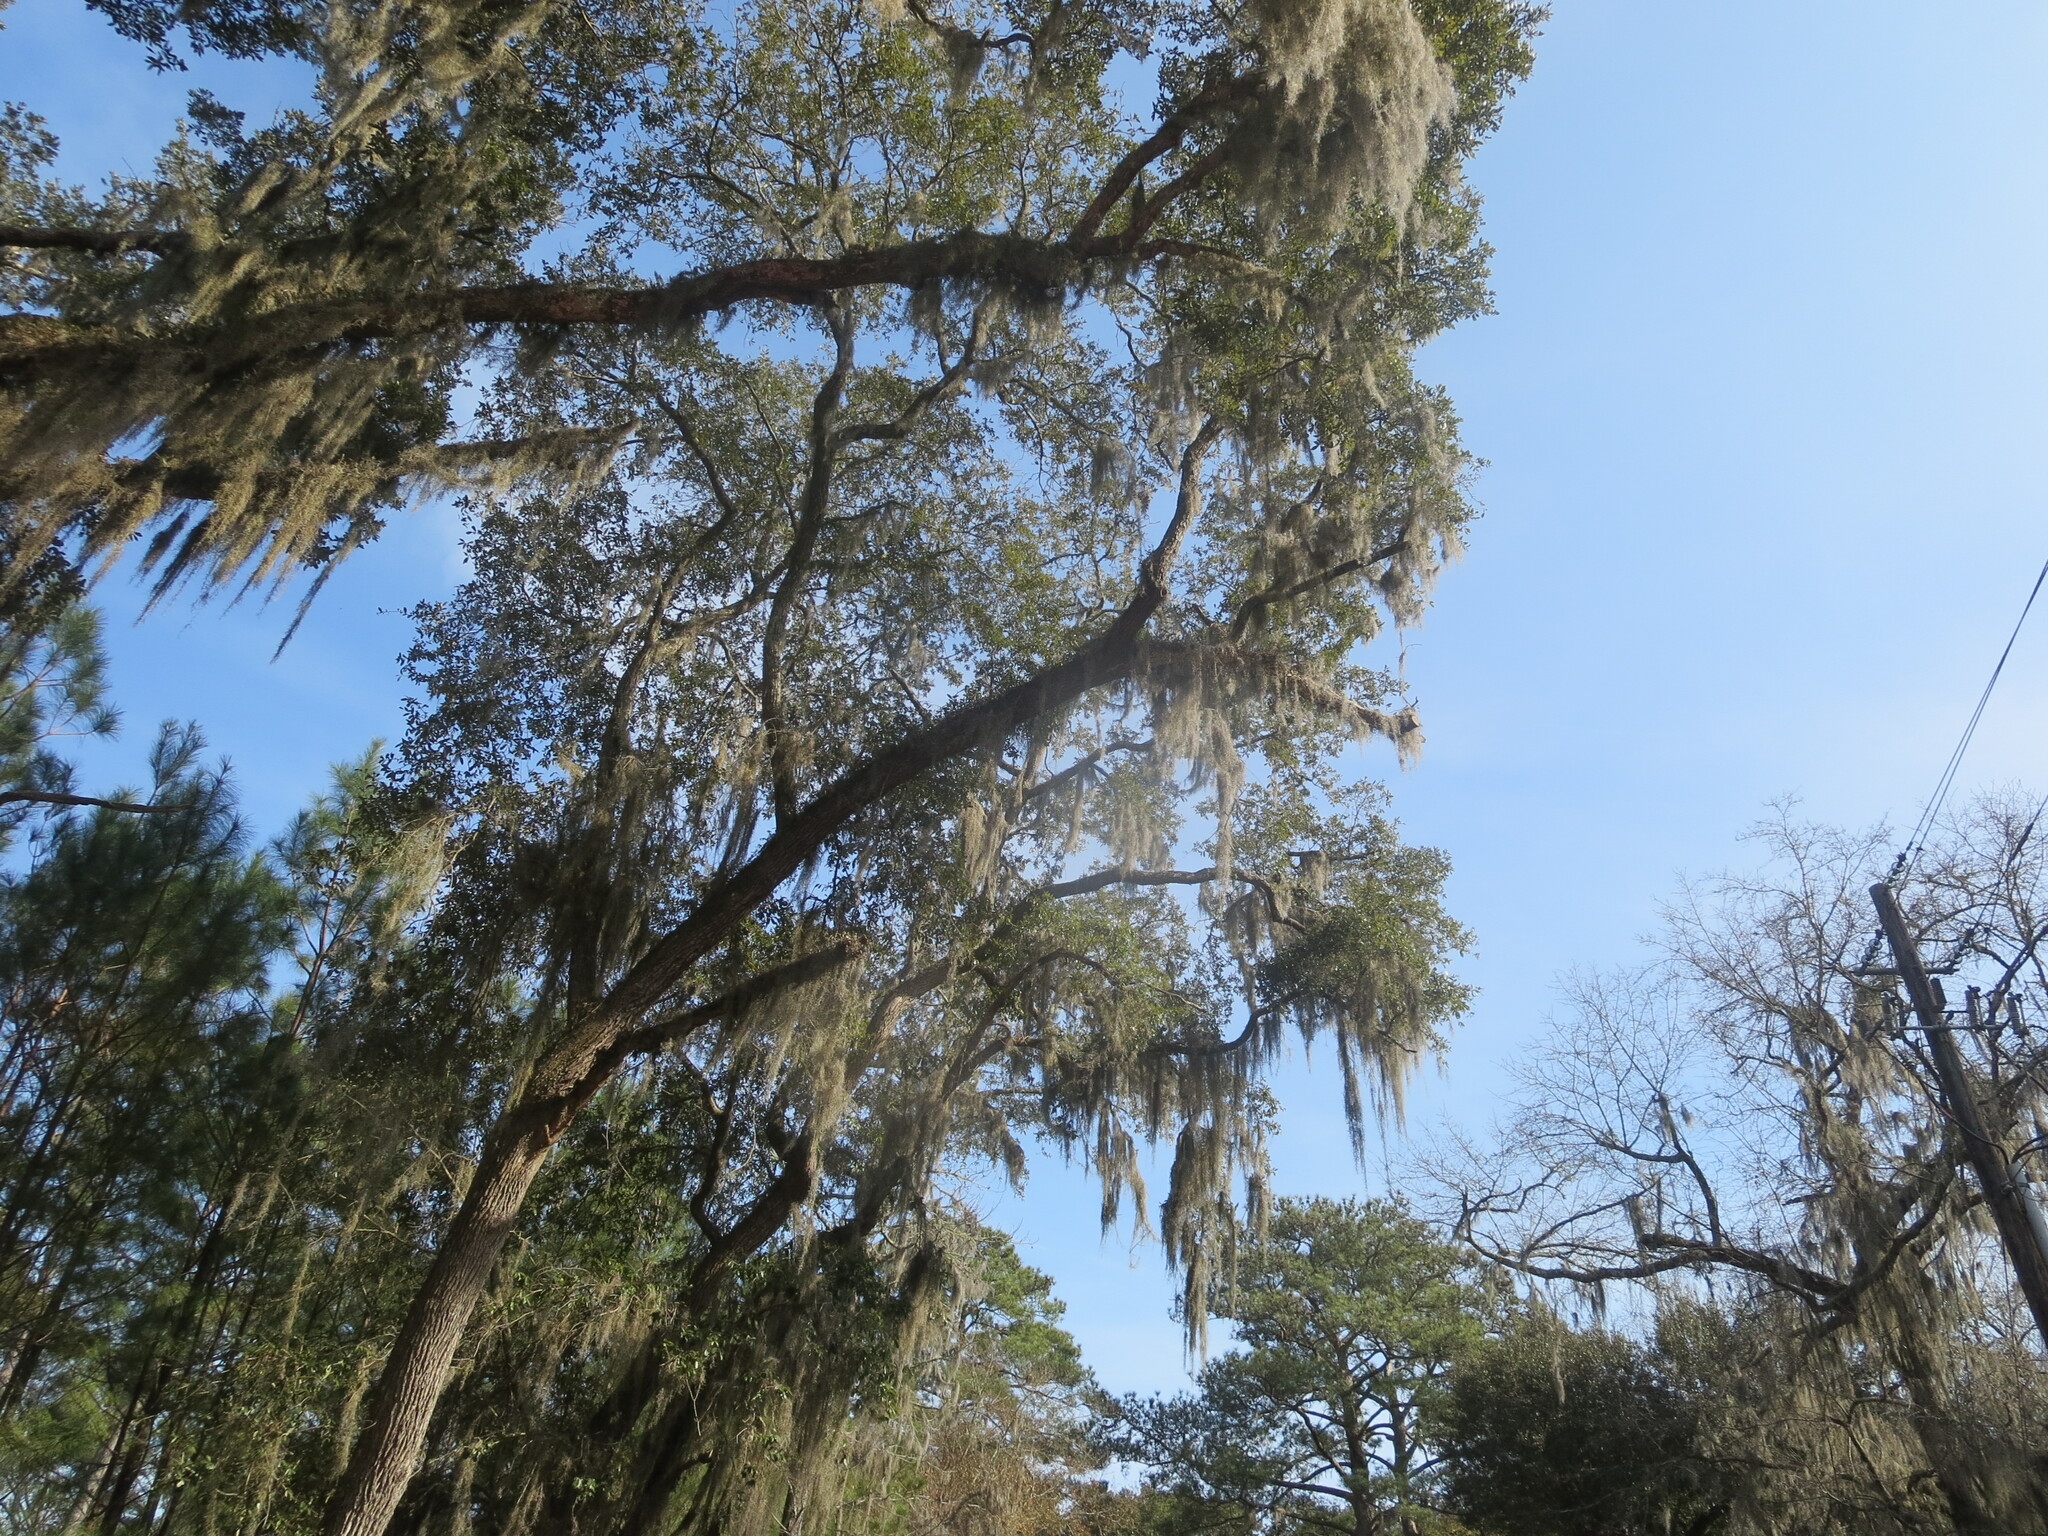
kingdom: Plantae
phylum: Tracheophyta
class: Magnoliopsida
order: Fagales
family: Fagaceae
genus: Quercus
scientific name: Quercus virginiana
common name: Southern live oak
